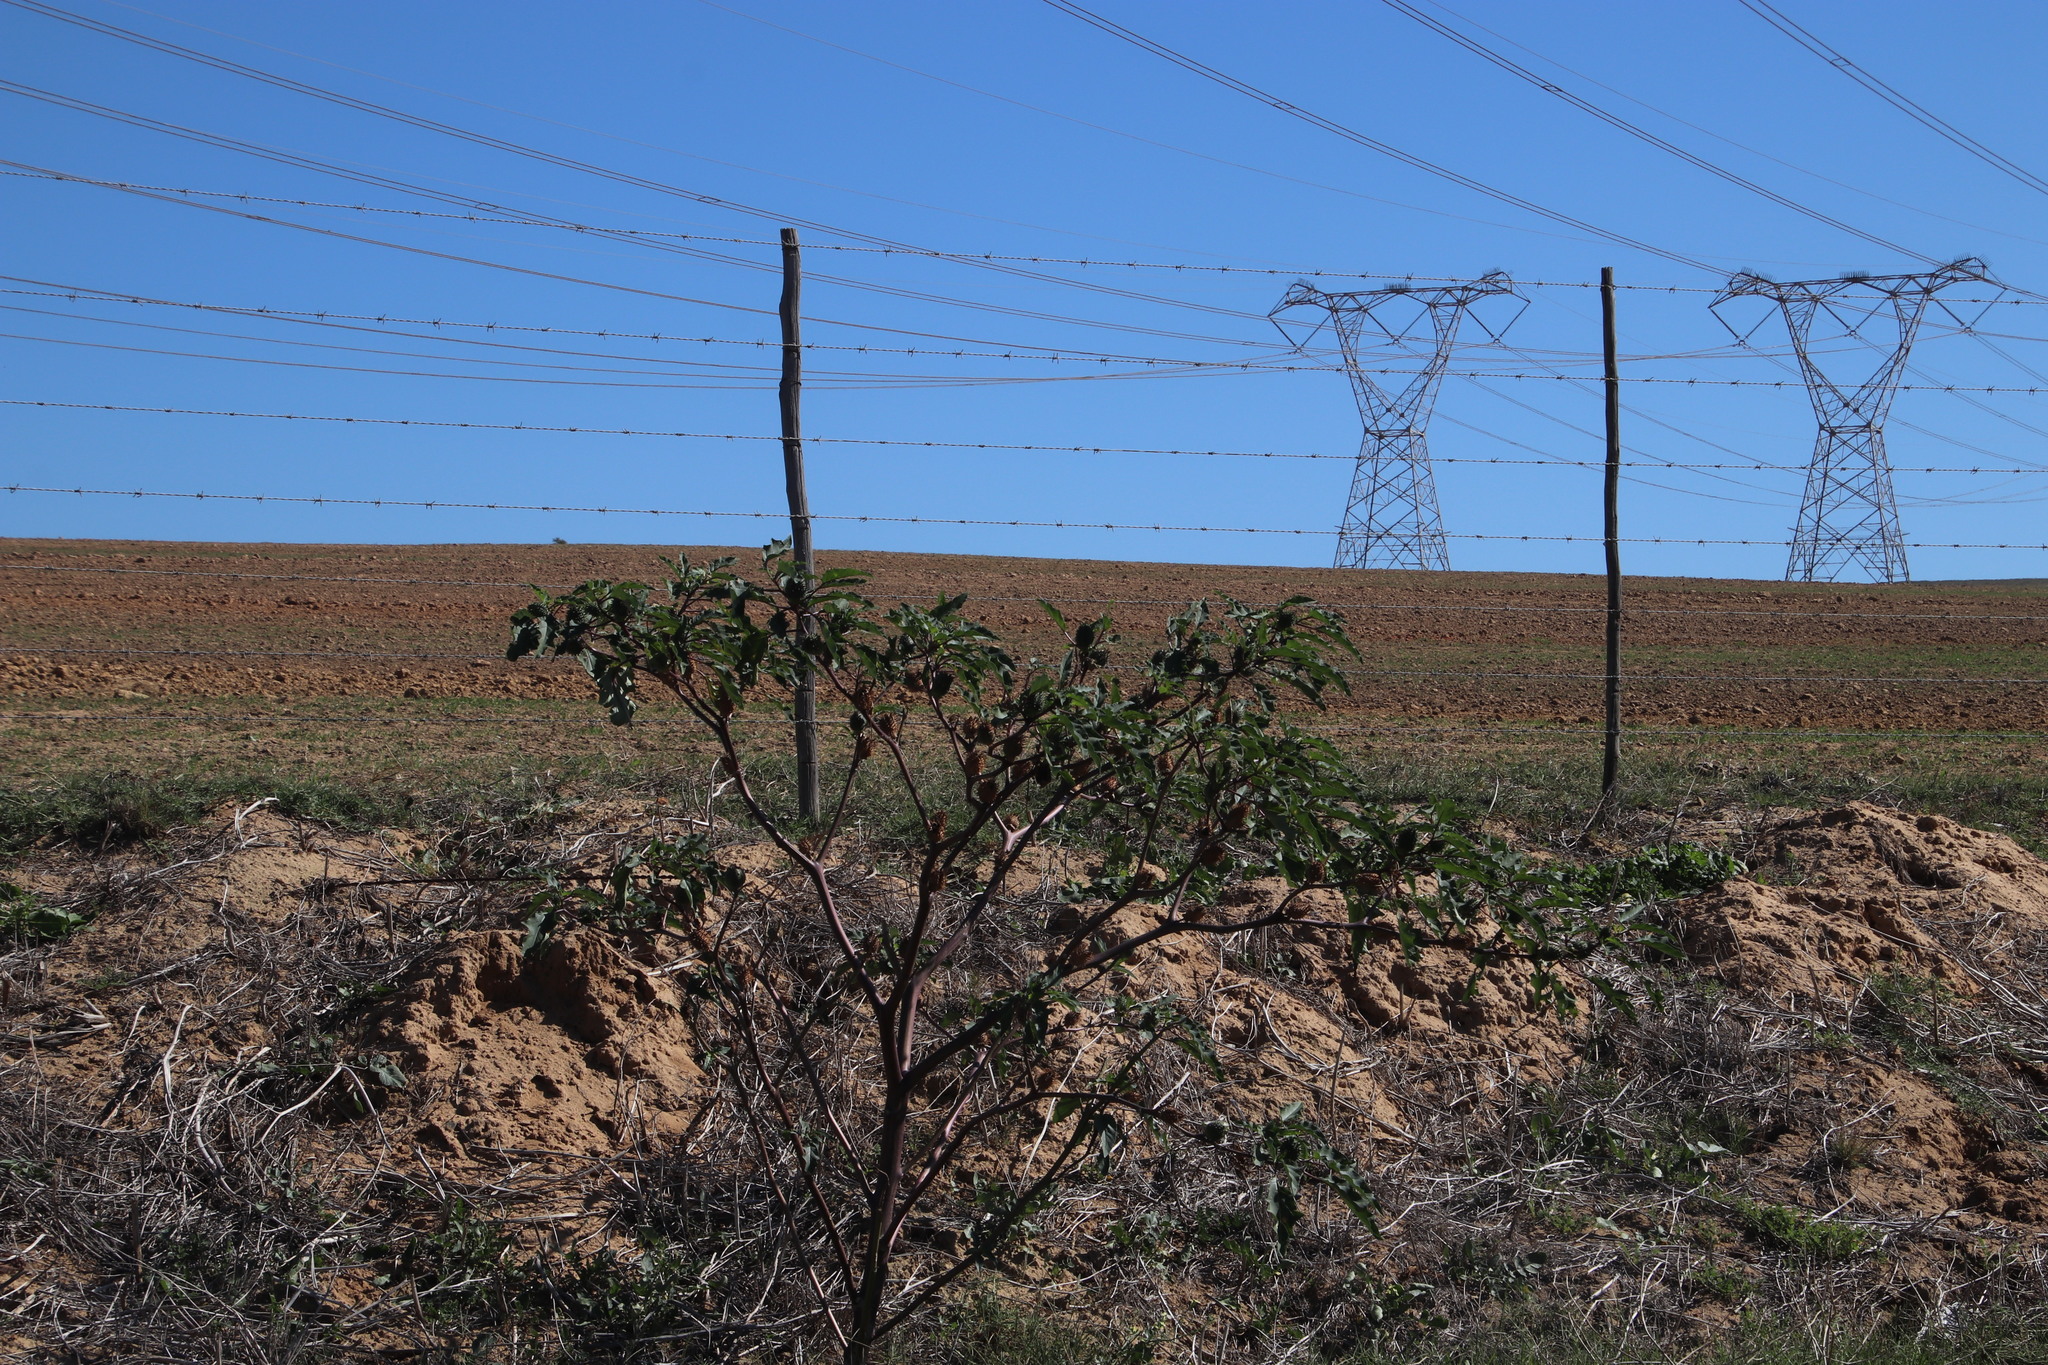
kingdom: Plantae
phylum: Tracheophyta
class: Magnoliopsida
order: Solanales
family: Solanaceae
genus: Datura
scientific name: Datura stramonium
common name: Thorn-apple
